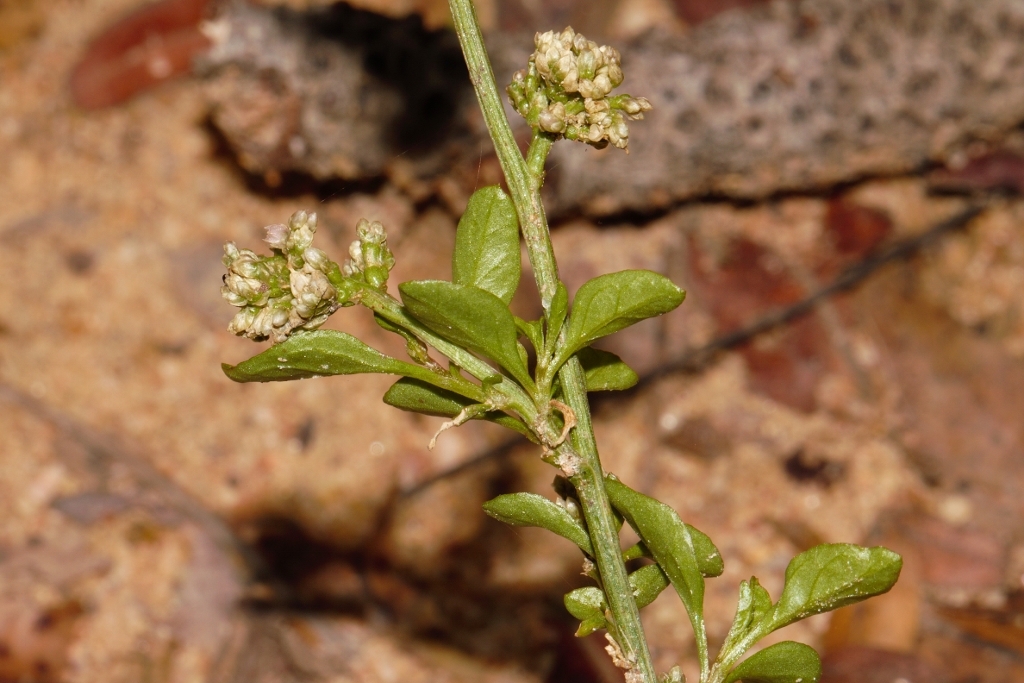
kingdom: Plantae
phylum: Tracheophyta
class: Magnoliopsida
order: Caryophyllales
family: Amaranthaceae
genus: Celosia
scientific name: Celosia trigyna
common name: Woolflower
